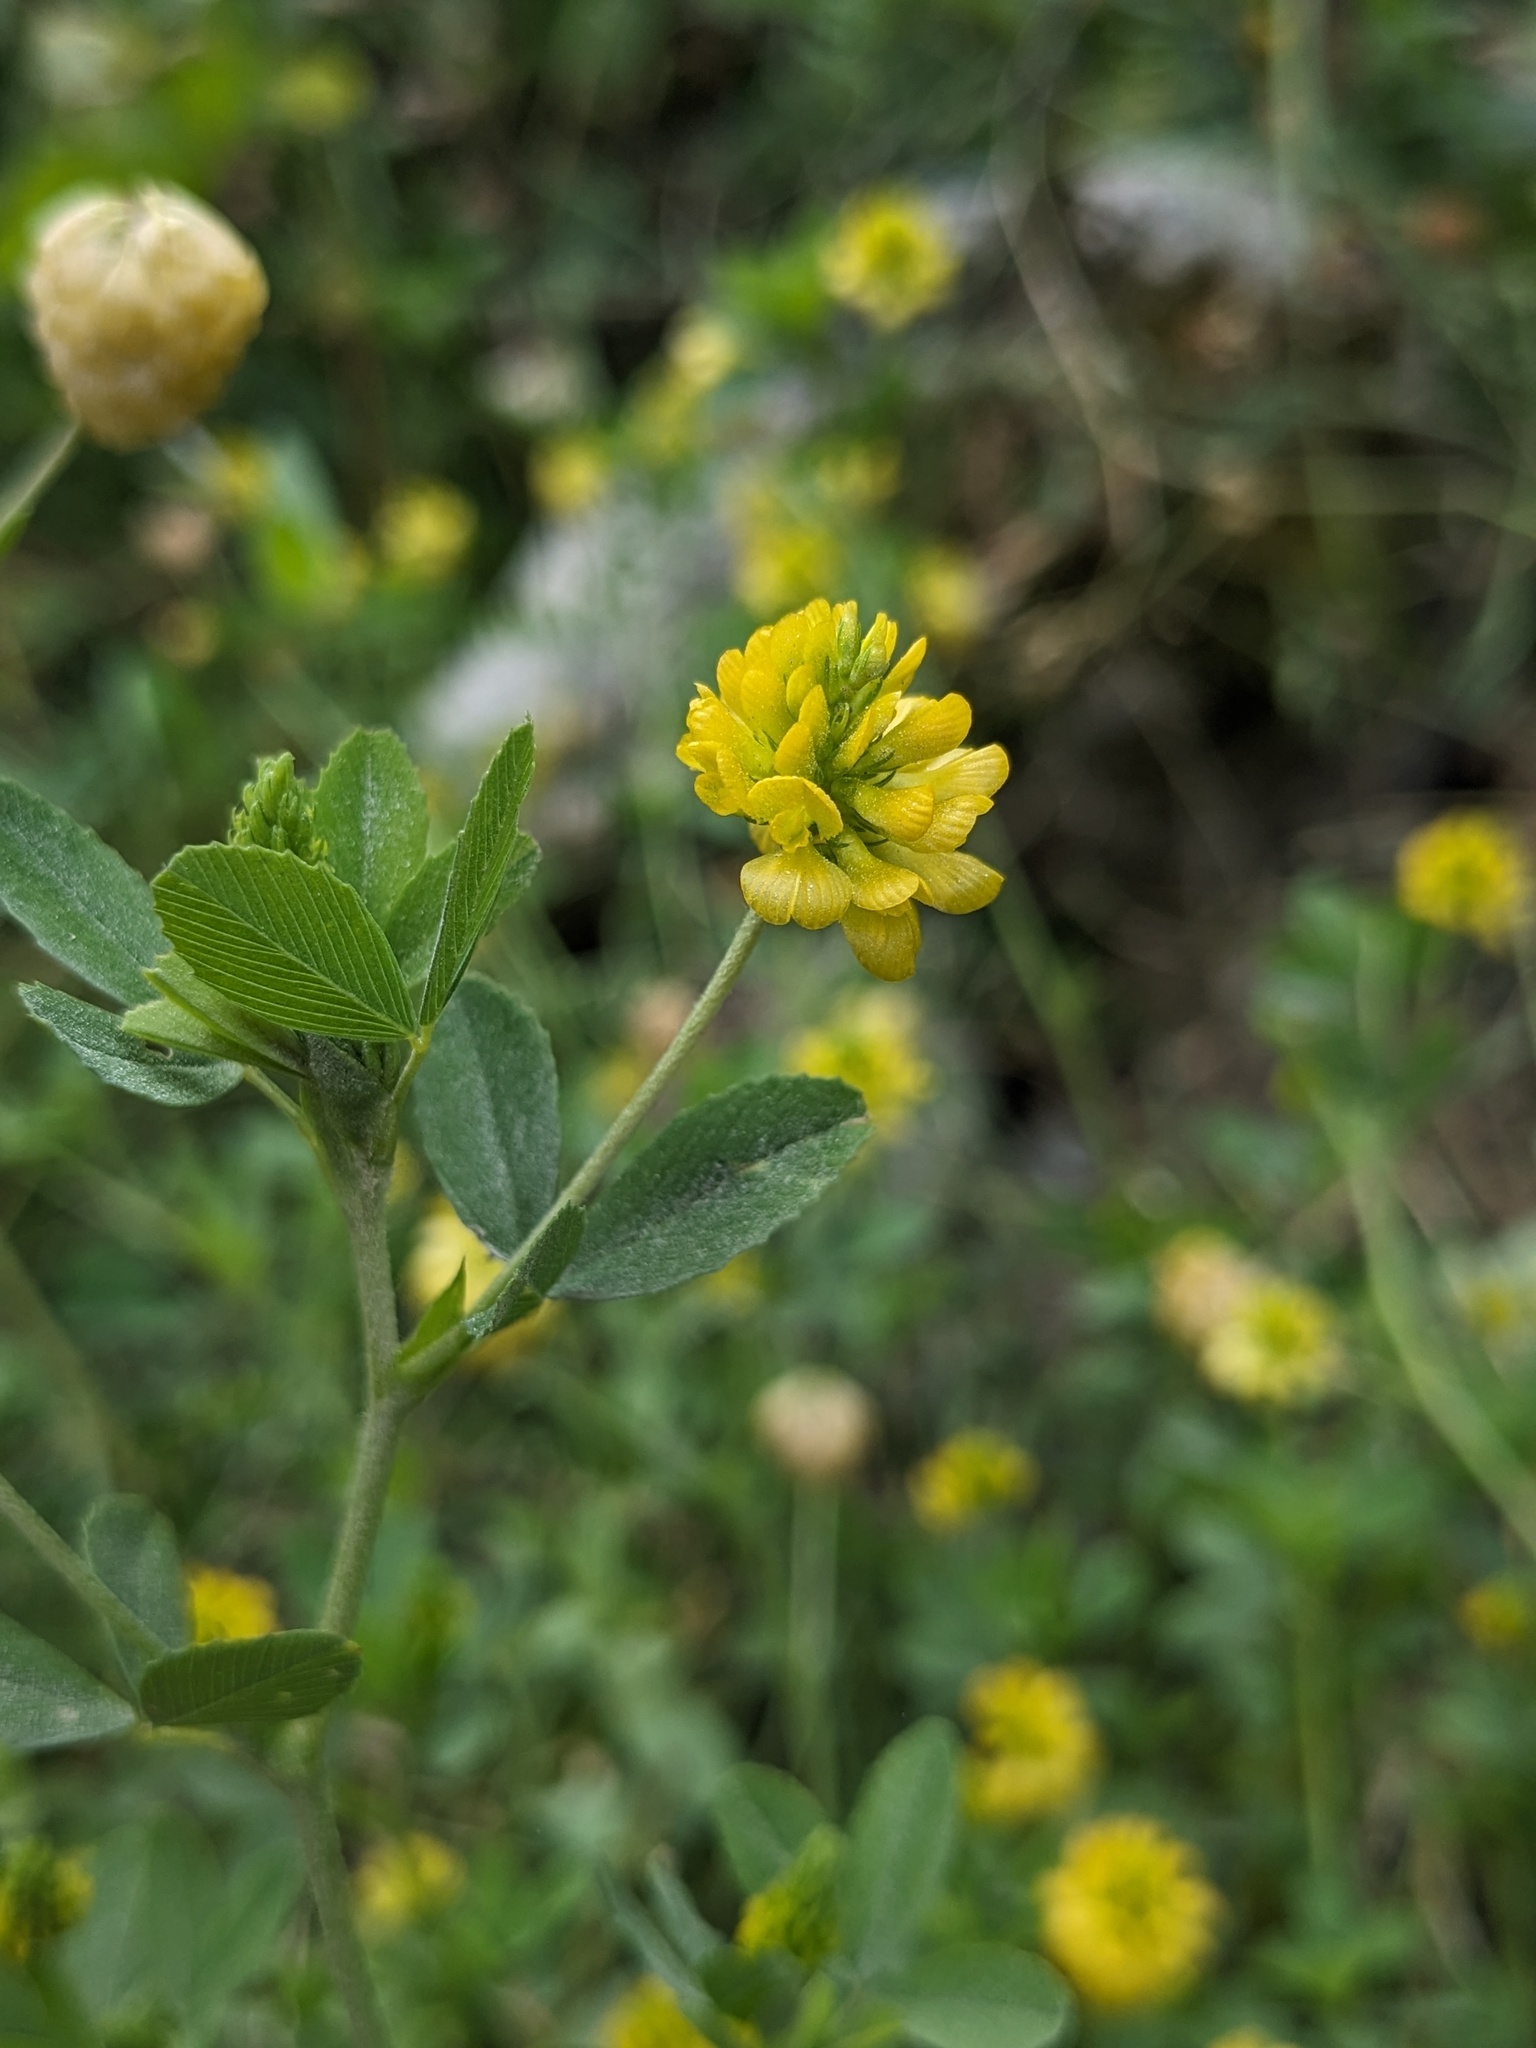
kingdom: Plantae
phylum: Tracheophyta
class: Magnoliopsida
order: Fabales
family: Fabaceae
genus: Trifolium
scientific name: Trifolium aureum
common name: Golden clover
